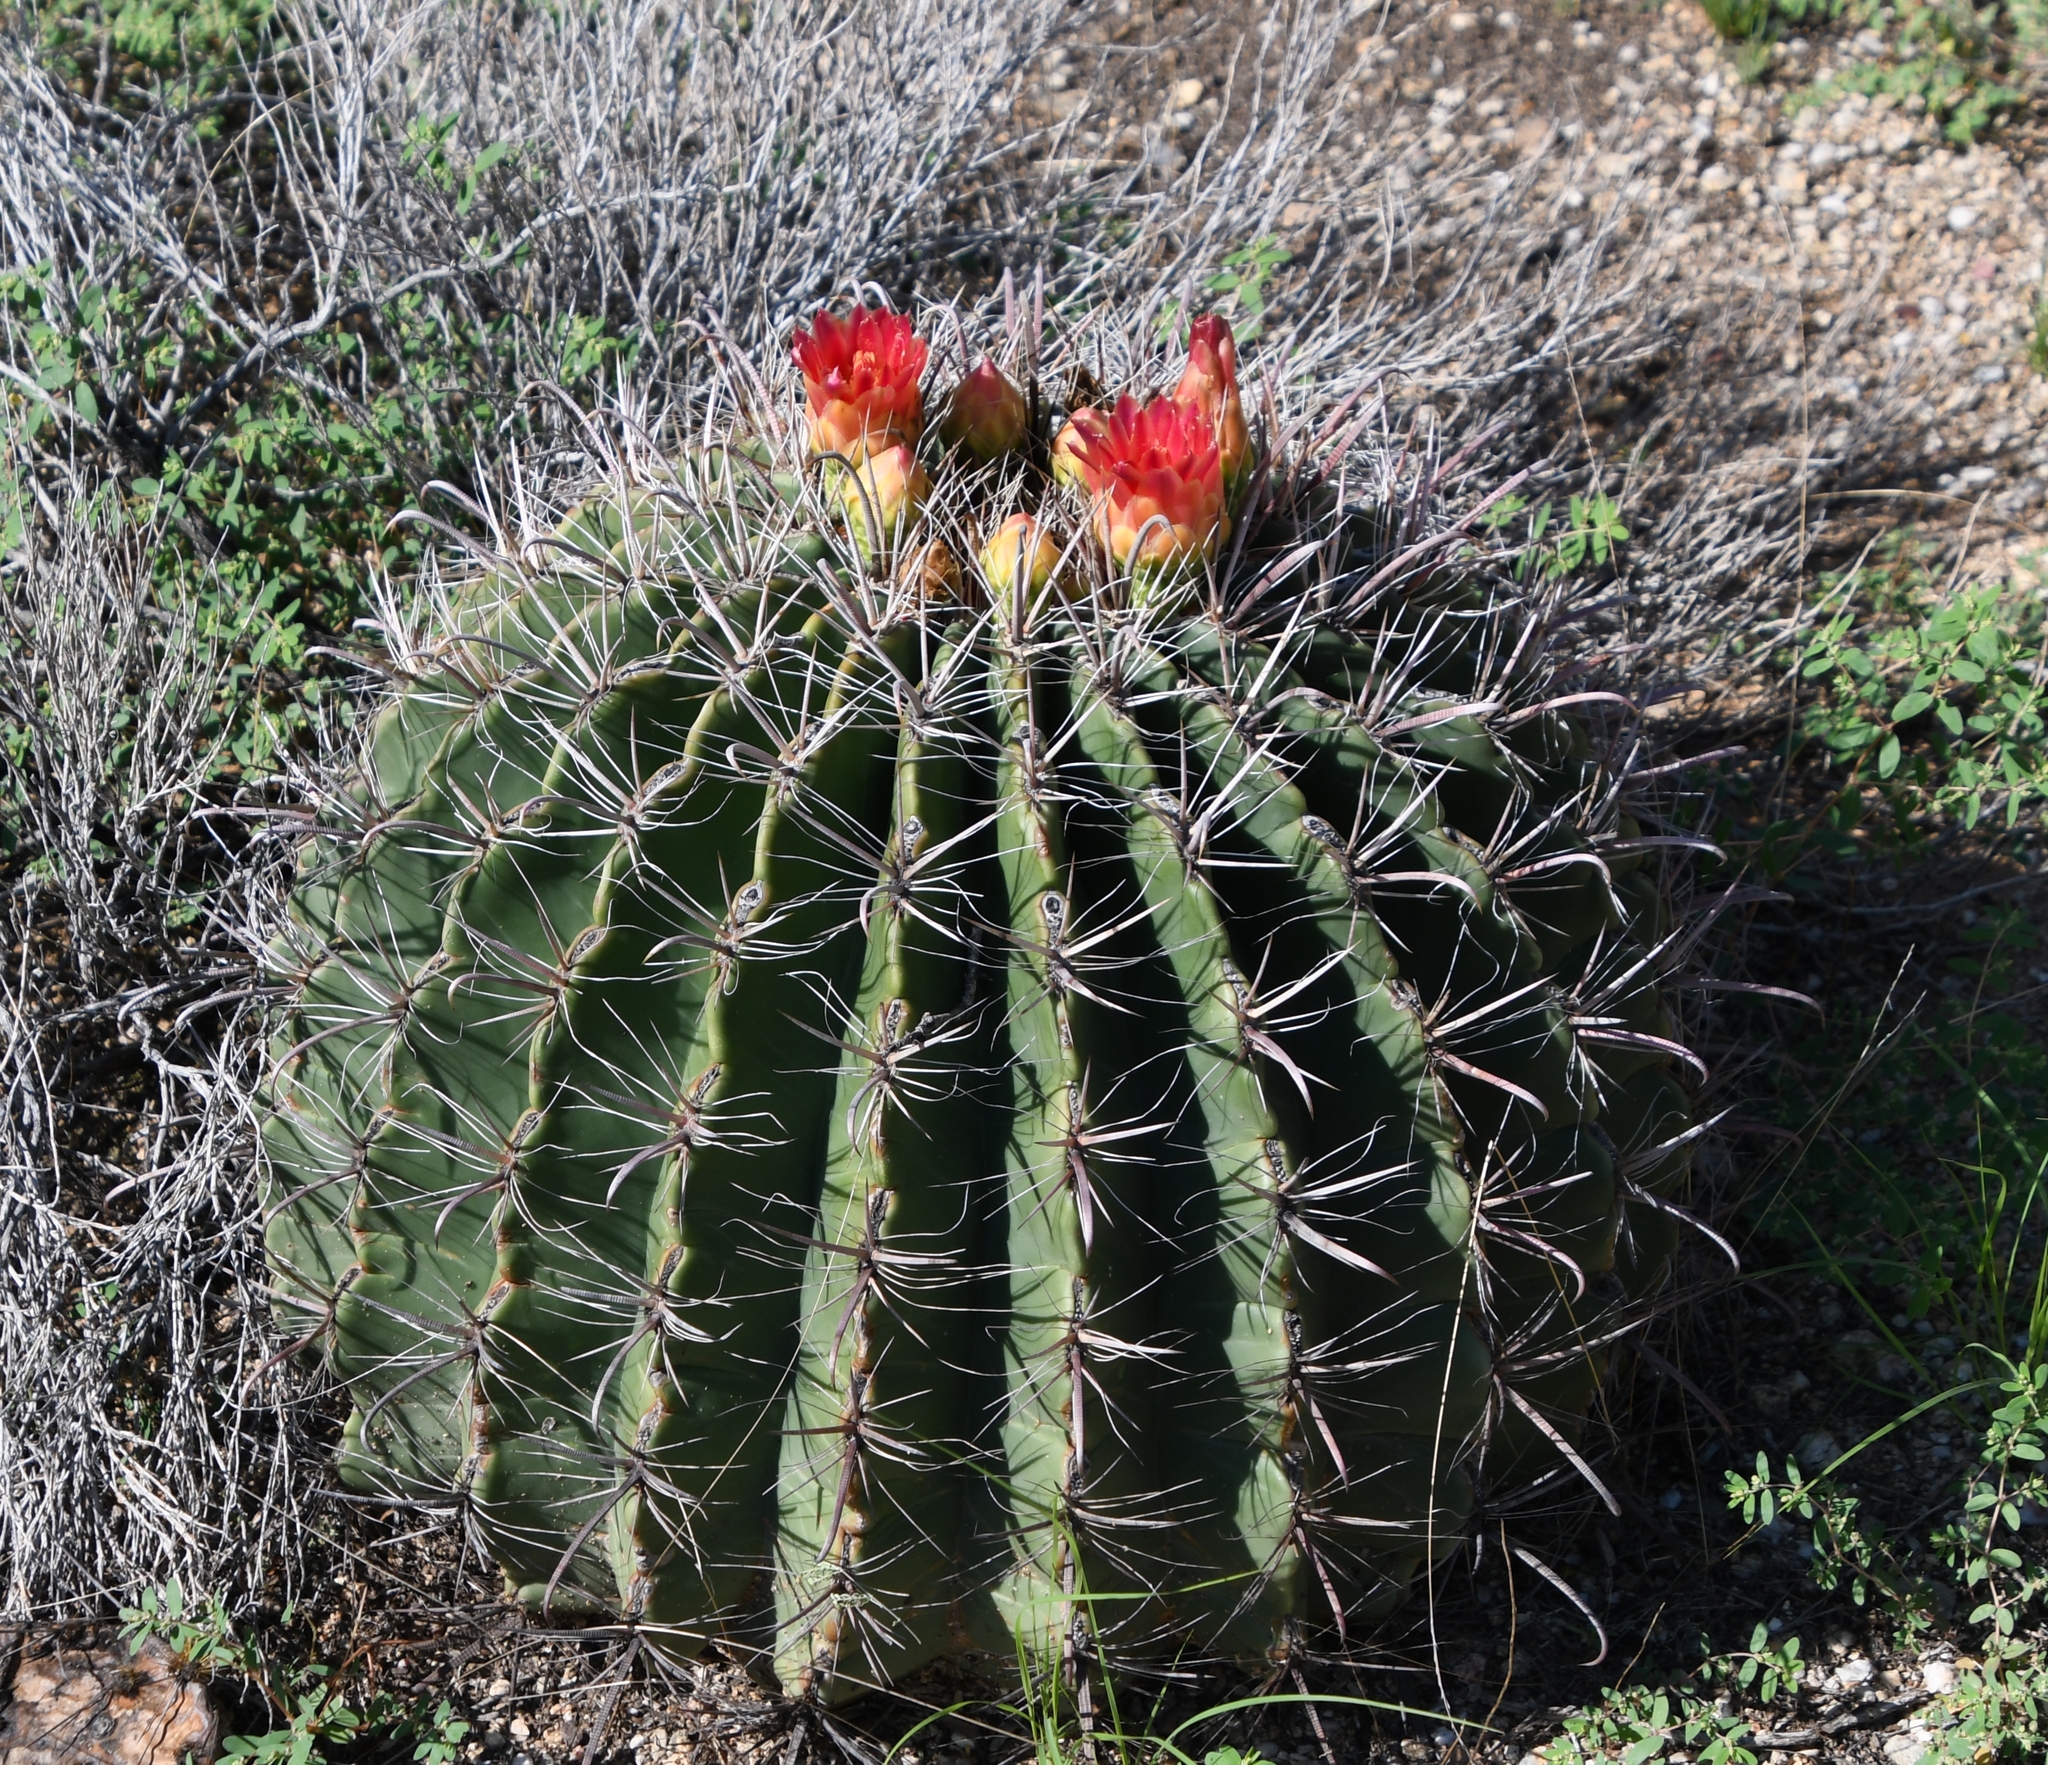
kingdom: Plantae
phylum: Tracheophyta
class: Magnoliopsida
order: Caryophyllales
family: Cactaceae
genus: Ferocactus
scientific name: Ferocactus wislizeni
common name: Candy barrel cactus
